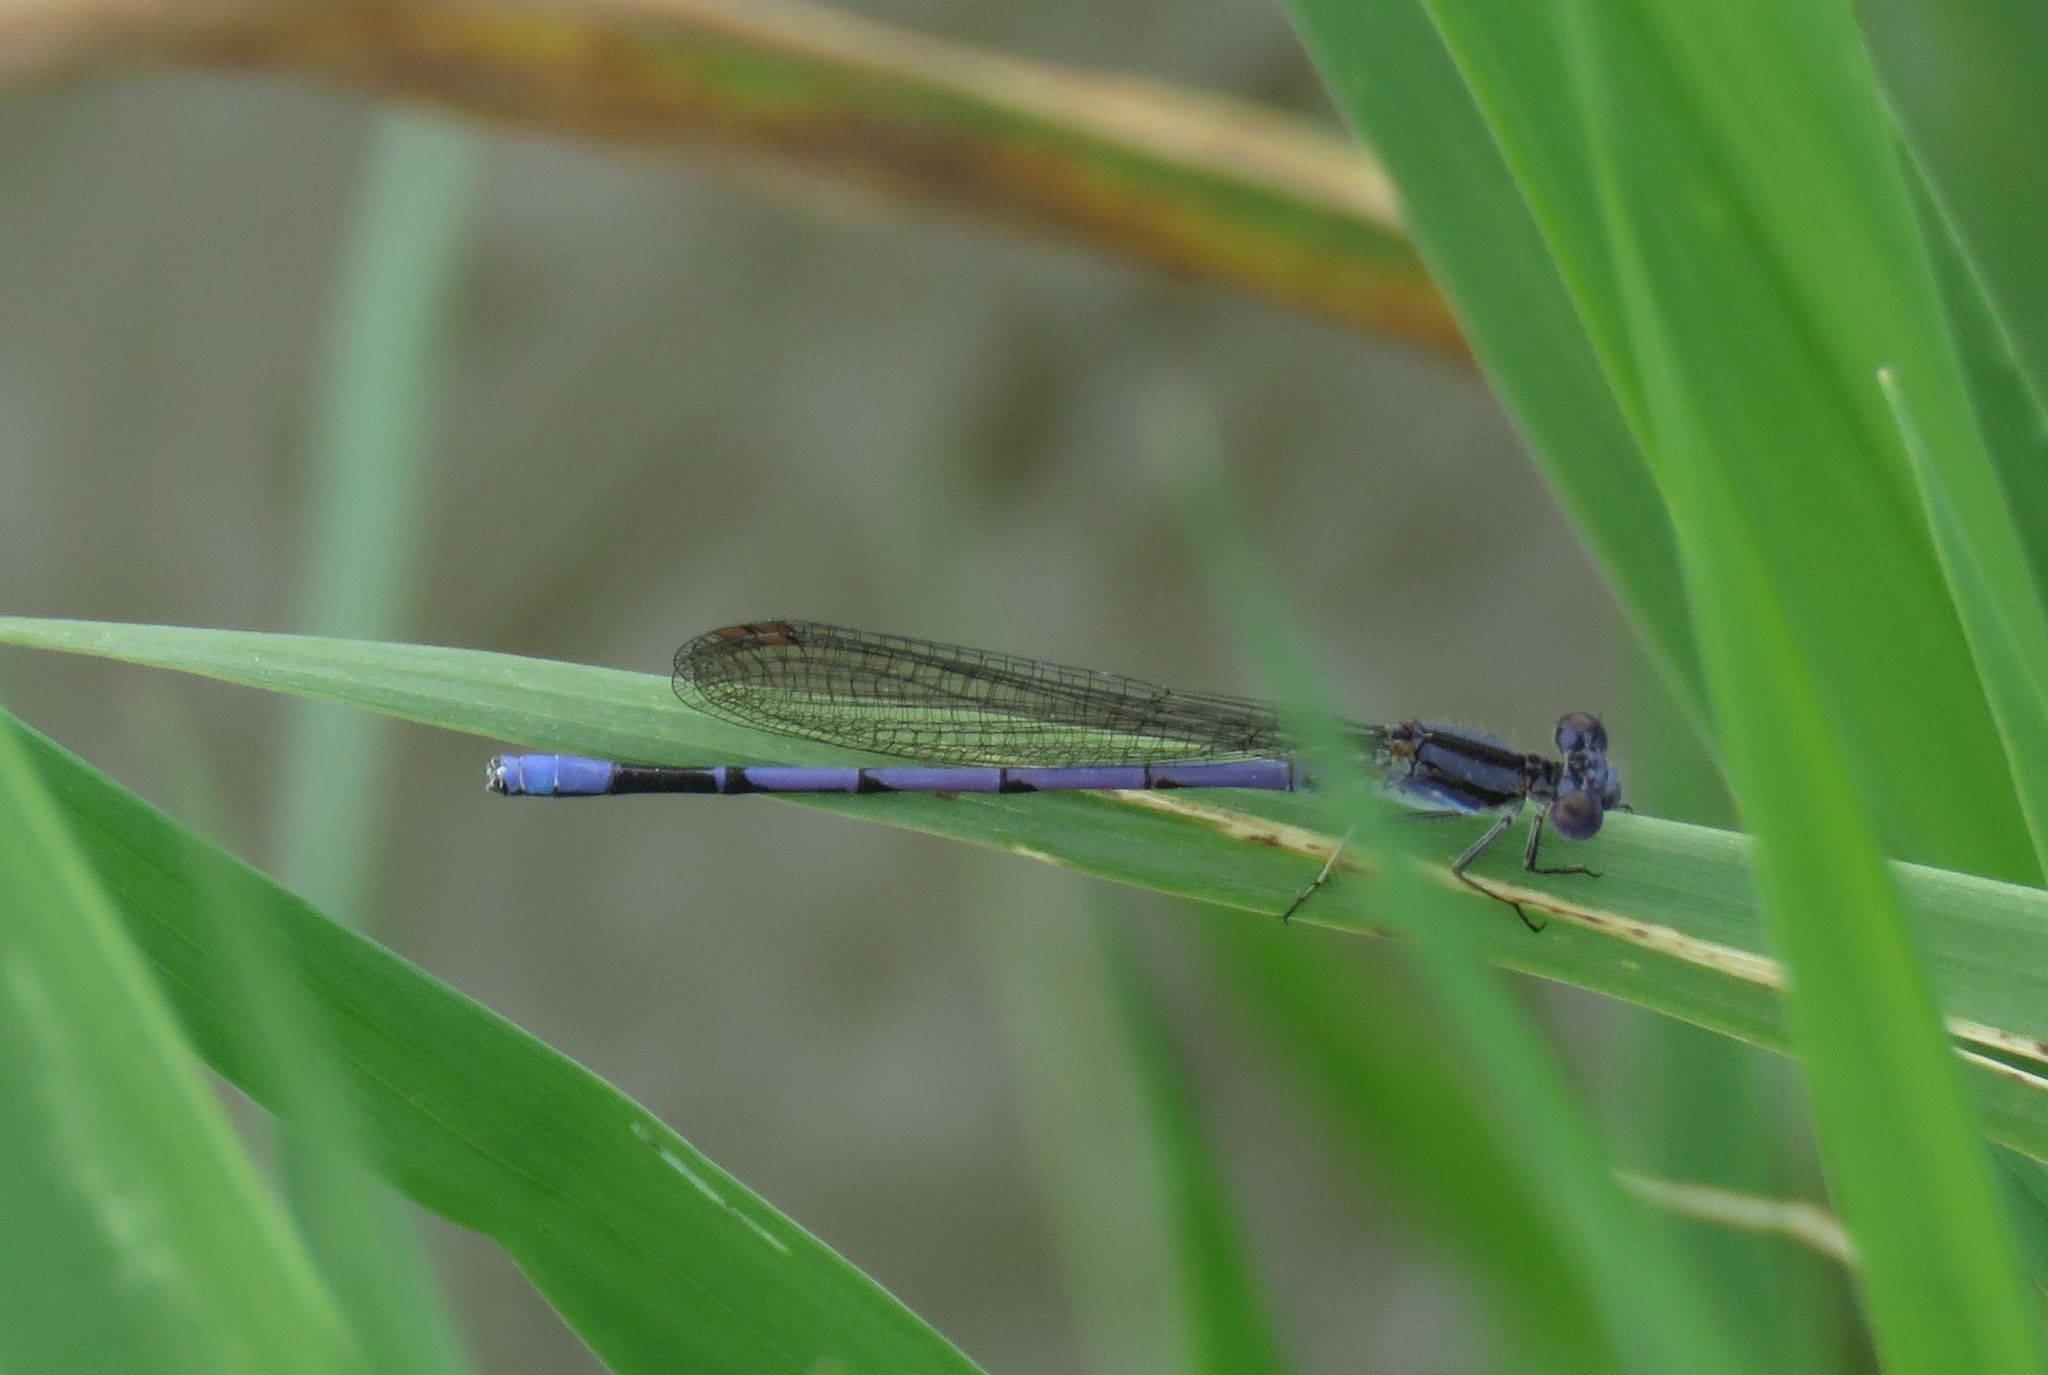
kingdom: Animalia
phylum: Arthropoda
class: Insecta
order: Odonata
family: Coenagrionidae
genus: Argia
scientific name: Argia fumipennis
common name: Variable dancer
